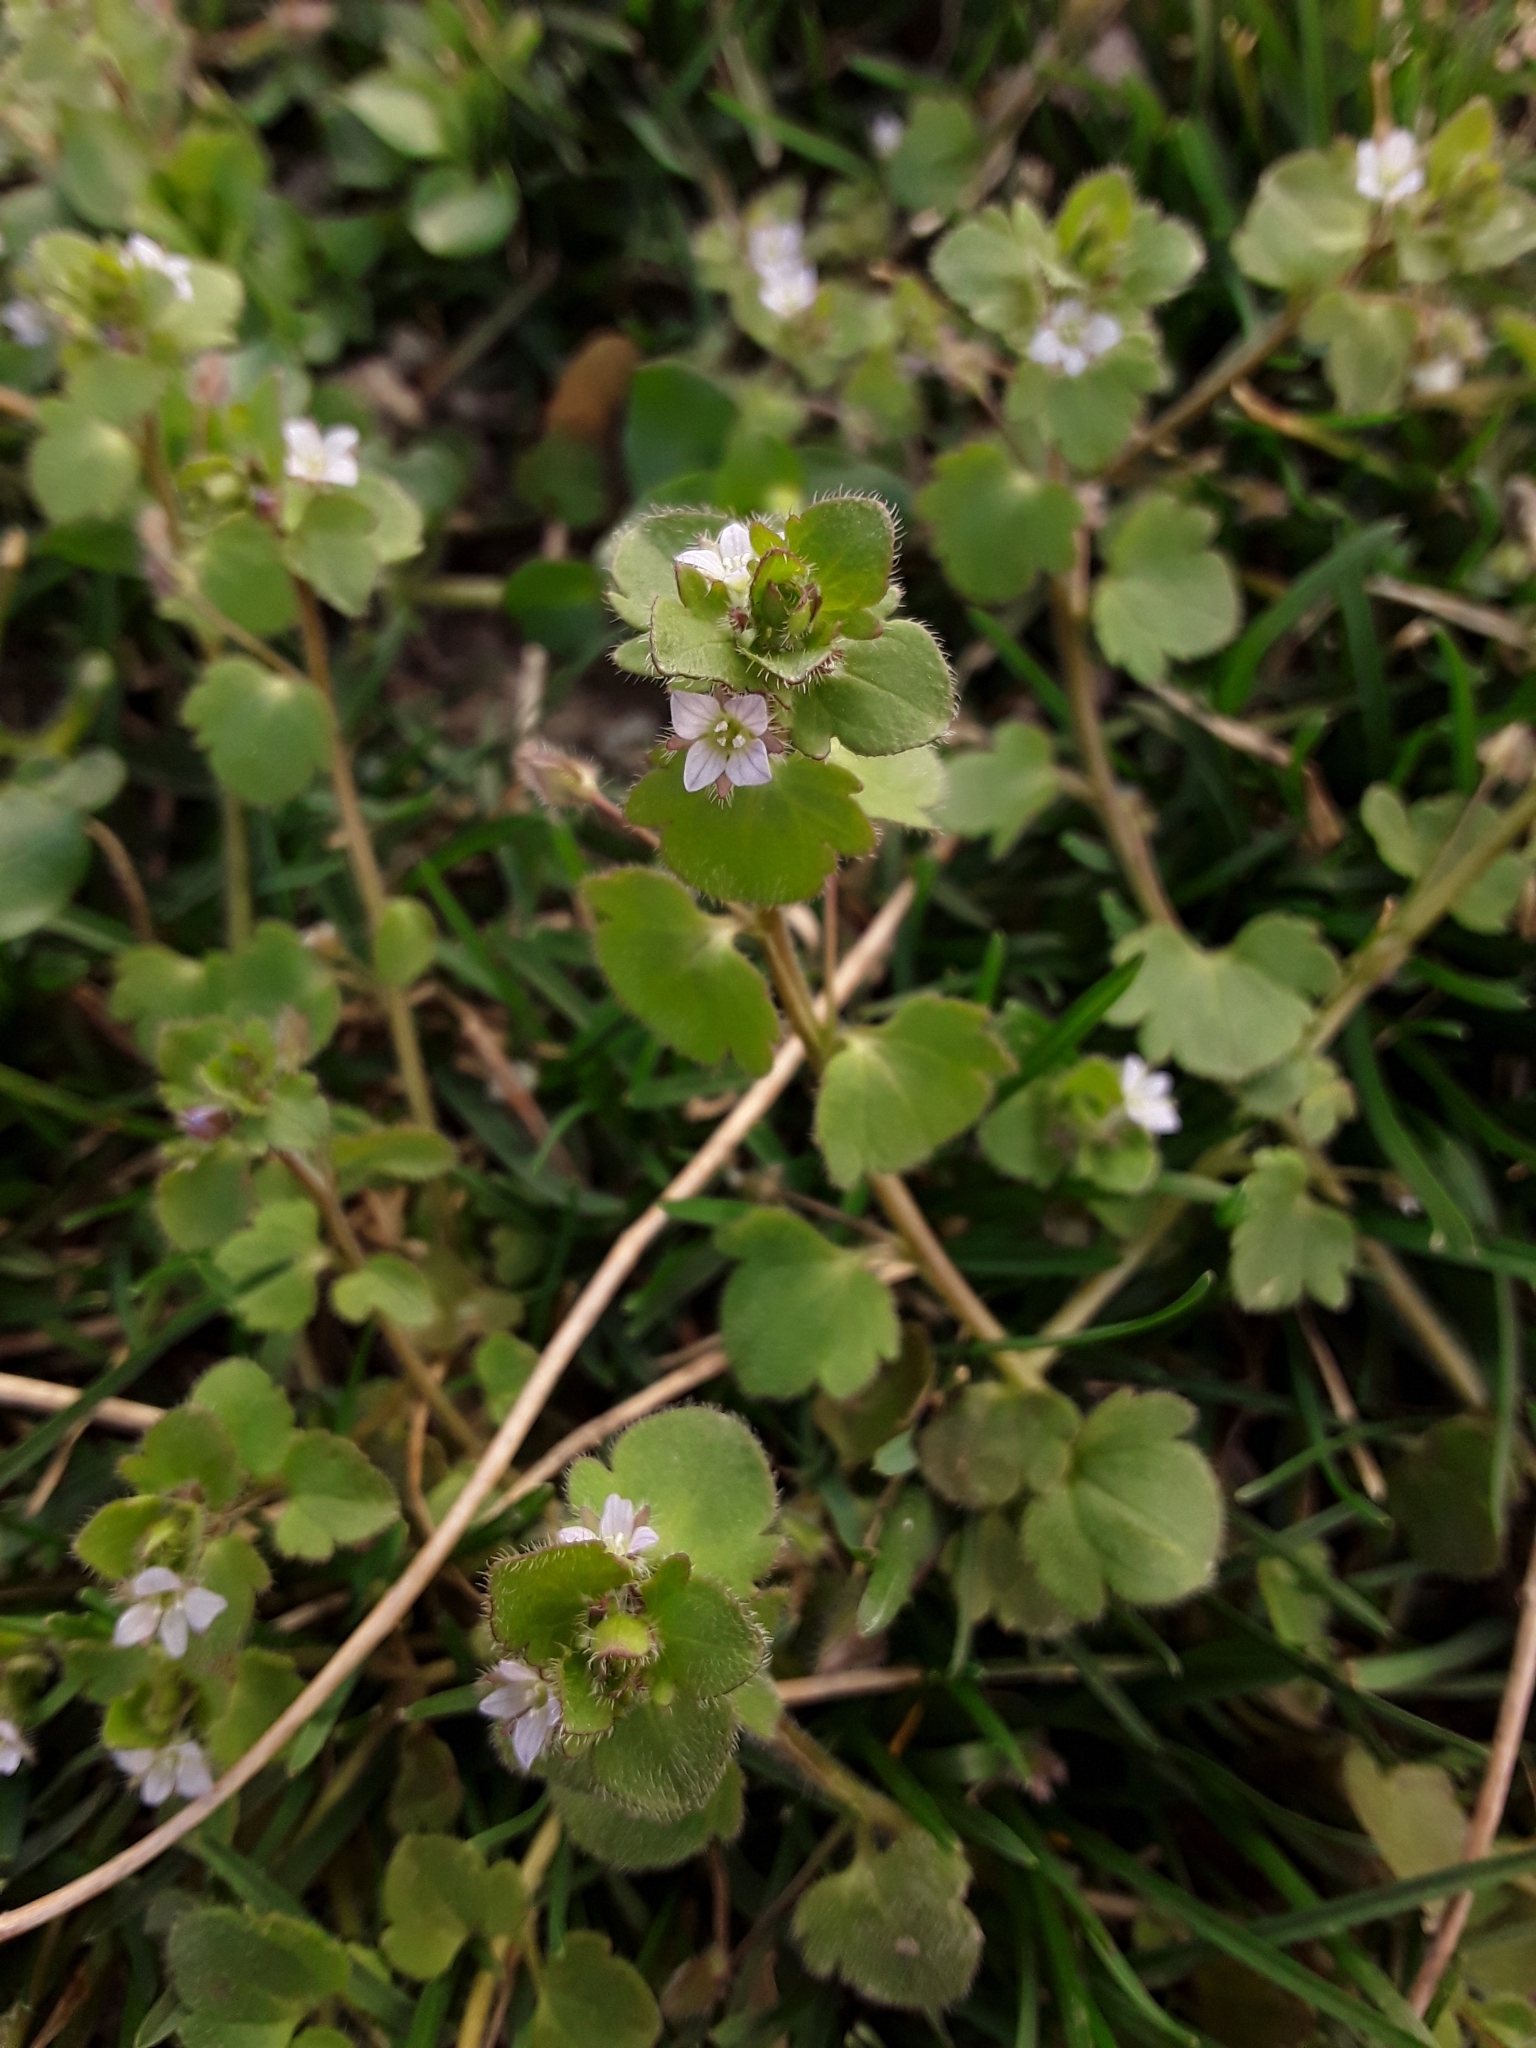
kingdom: Plantae
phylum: Tracheophyta
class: Magnoliopsida
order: Lamiales
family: Plantaginaceae
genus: Veronica
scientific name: Veronica sublobata
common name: False ivy-leaved speedwell
